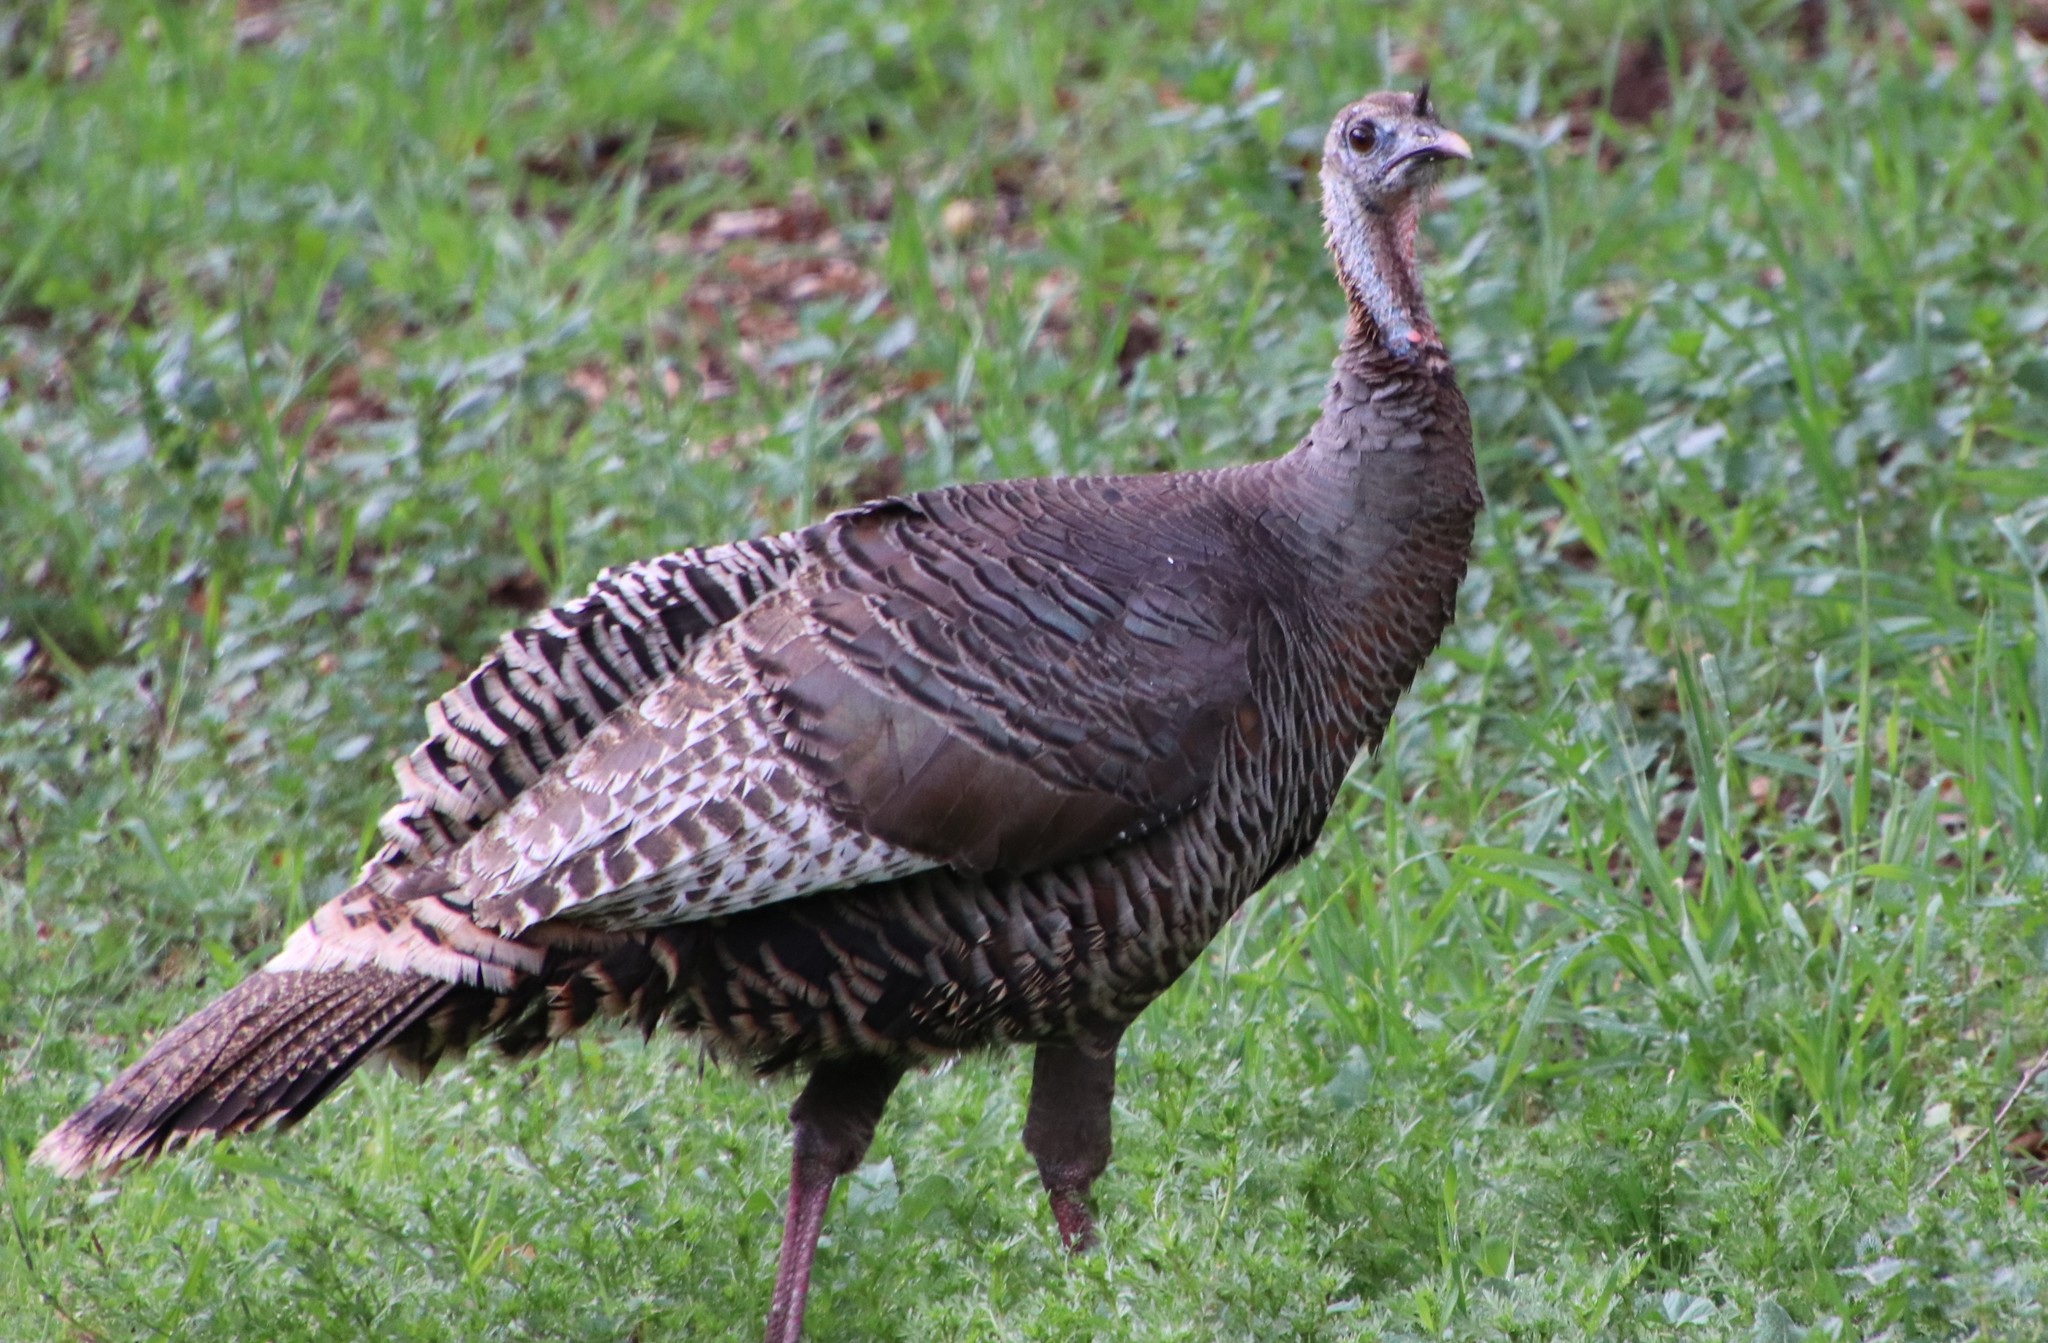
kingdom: Animalia
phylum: Chordata
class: Aves
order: Galliformes
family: Phasianidae
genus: Meleagris
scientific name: Meleagris gallopavo
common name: Wild turkey
